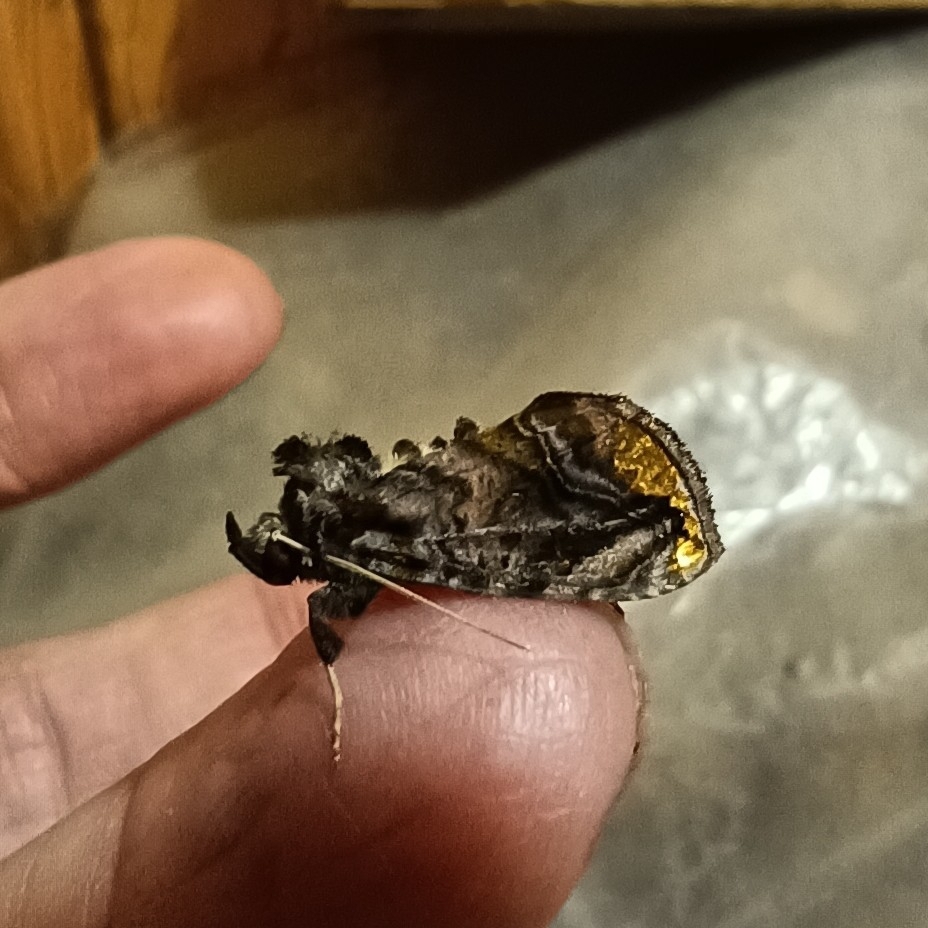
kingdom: Animalia
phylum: Arthropoda
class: Insecta
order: Lepidoptera
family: Noctuidae
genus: Lamprotes
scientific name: Lamprotes caureum
